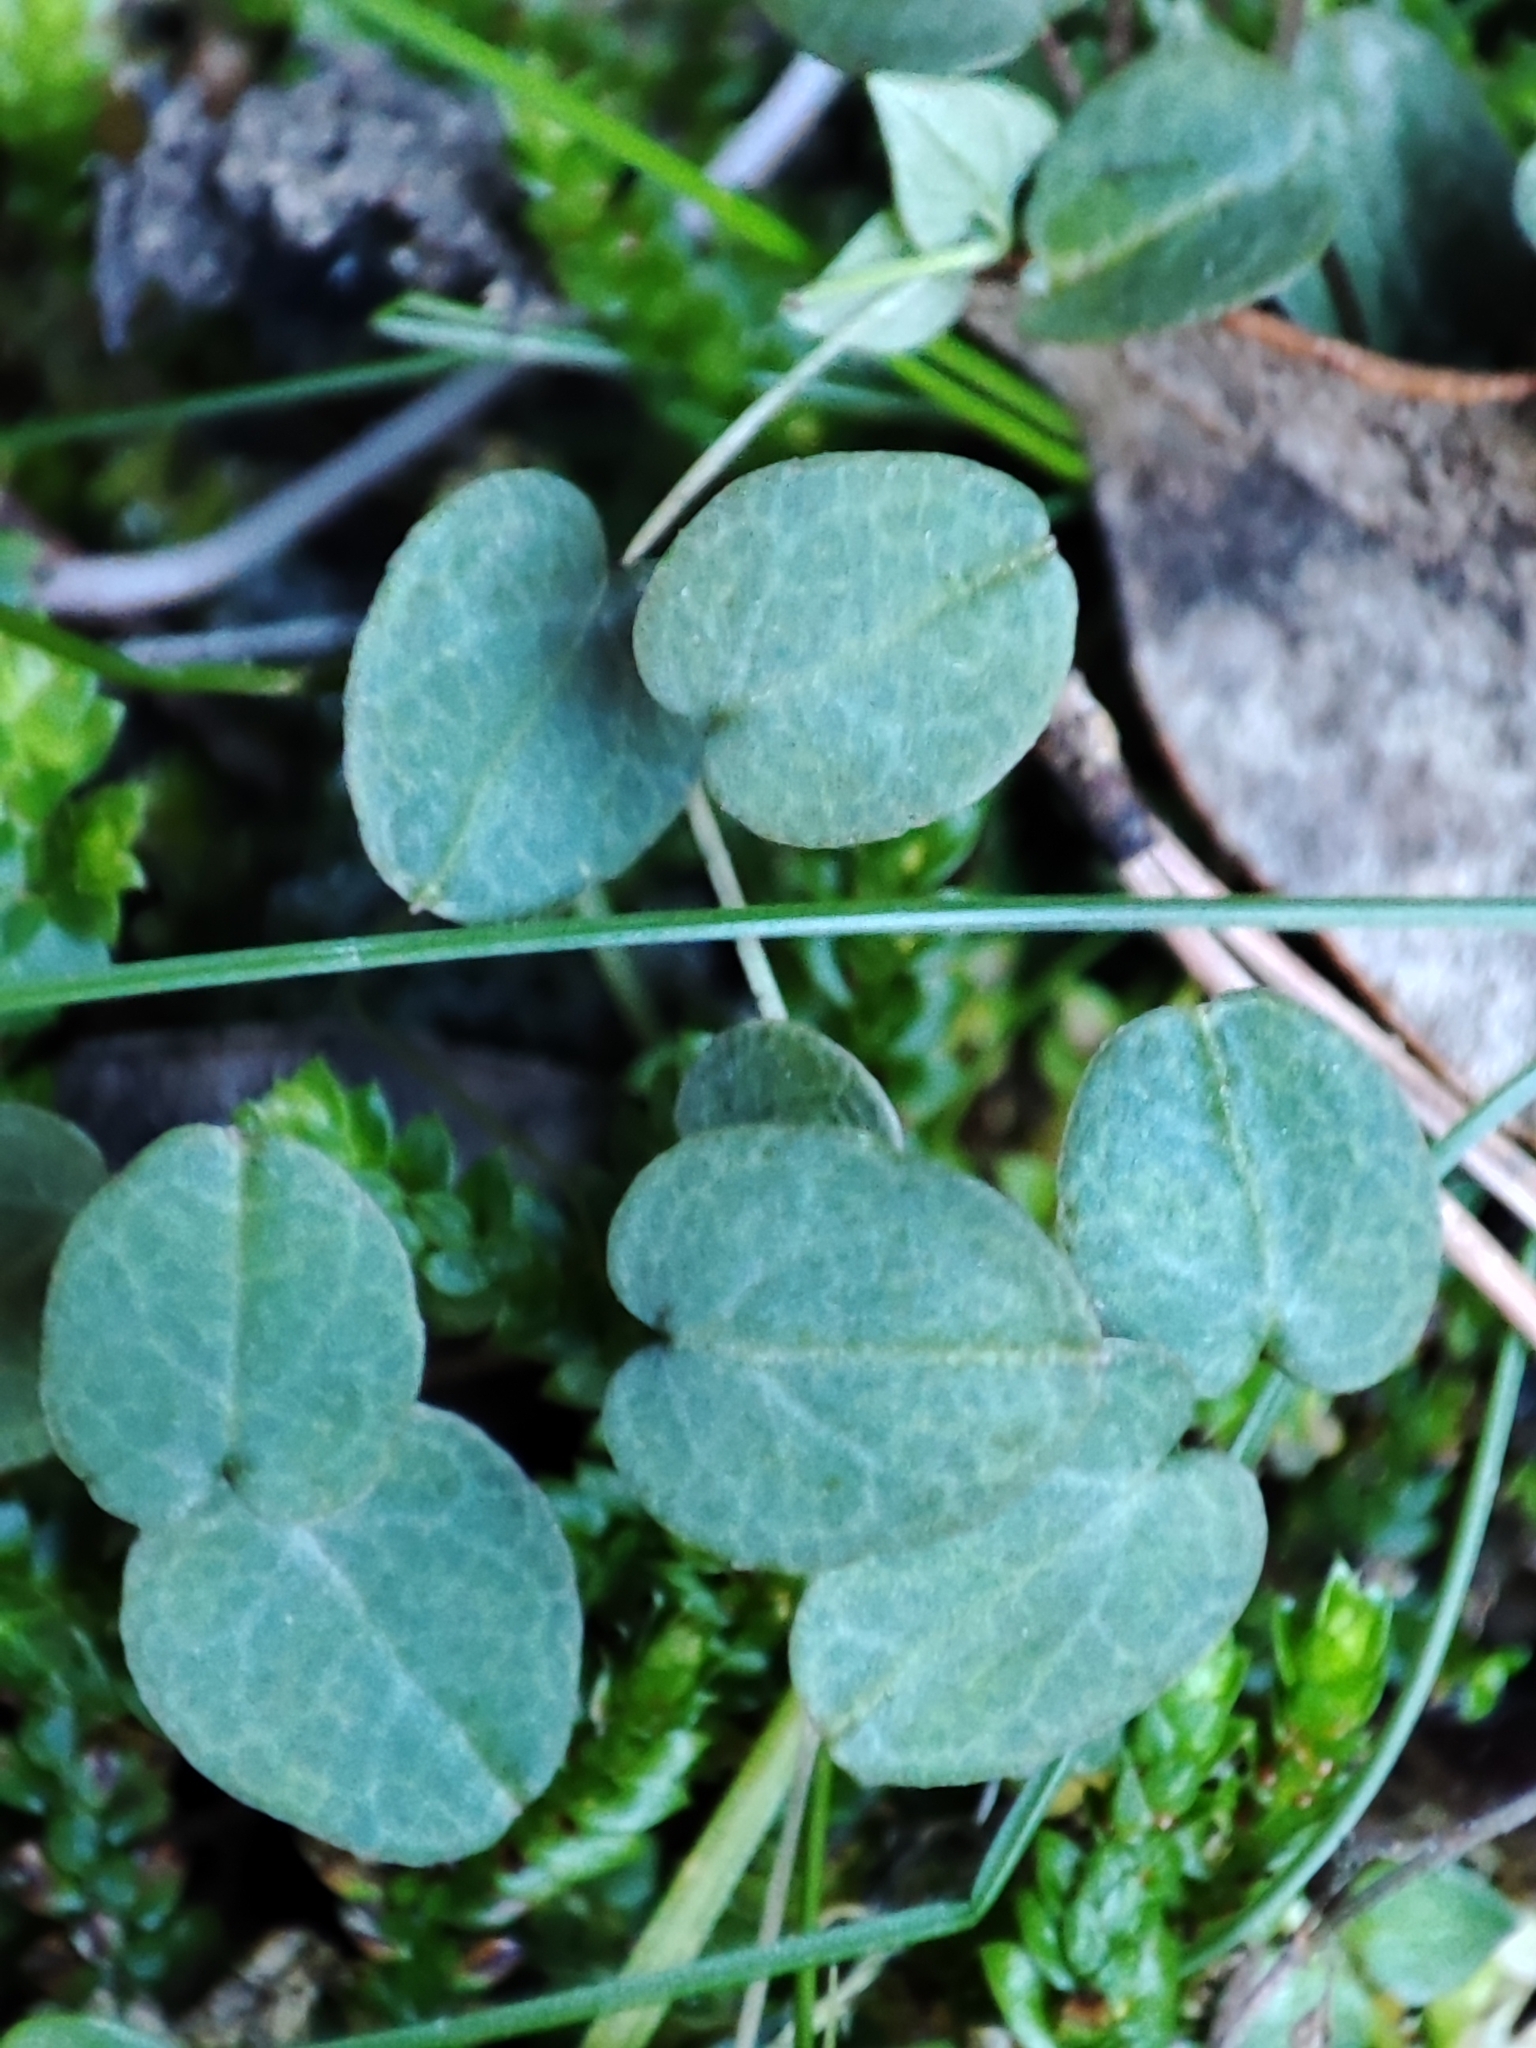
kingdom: Plantae
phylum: Tracheophyta
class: Magnoliopsida
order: Ericales
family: Primulaceae
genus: Cyclamen
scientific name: Cyclamen balearicum
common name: Majorca cyclamen
